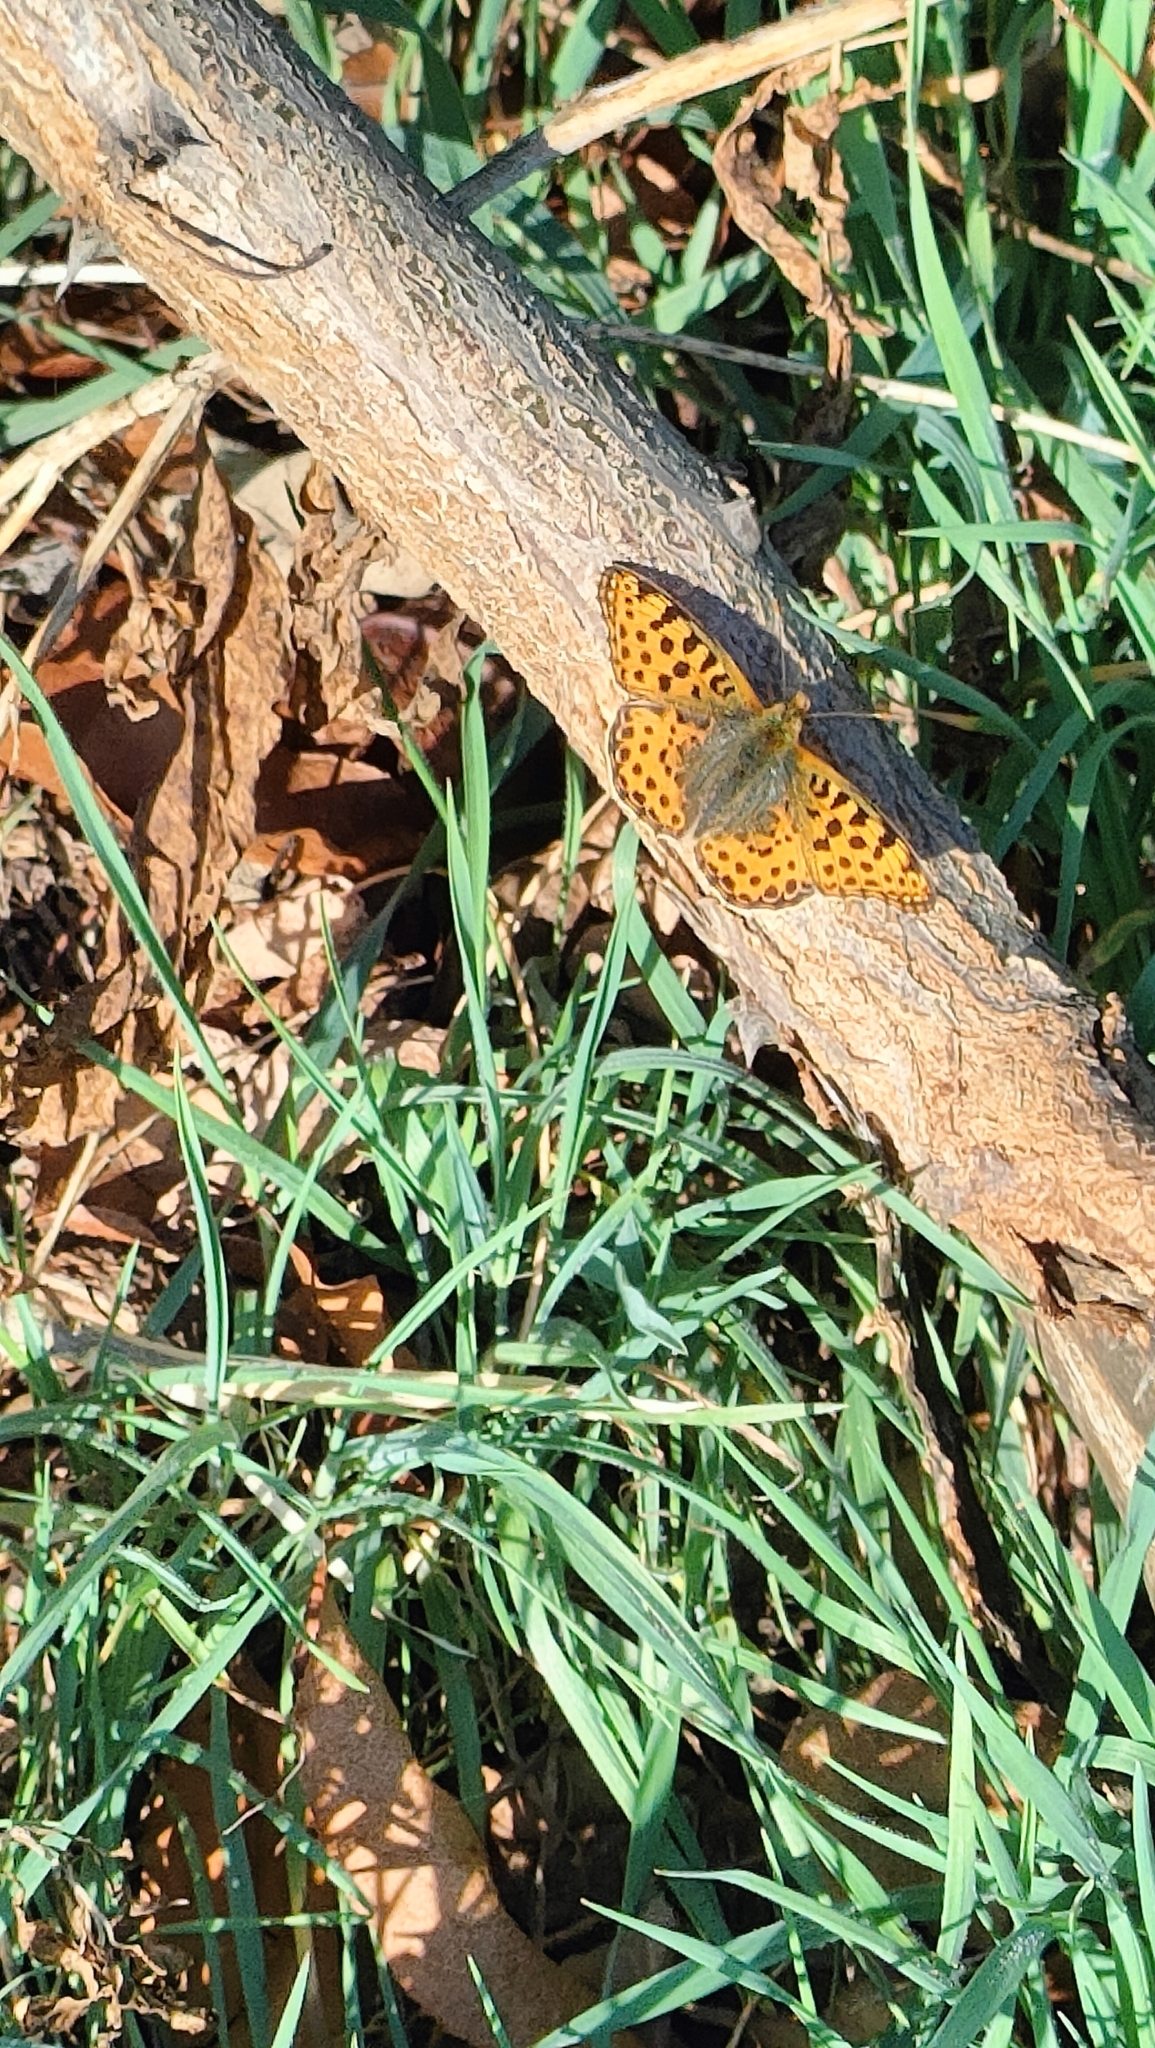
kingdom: Animalia
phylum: Arthropoda
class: Insecta
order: Lepidoptera
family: Nymphalidae
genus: Issoria
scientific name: Issoria lathonia
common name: Queen of spain fritillary
